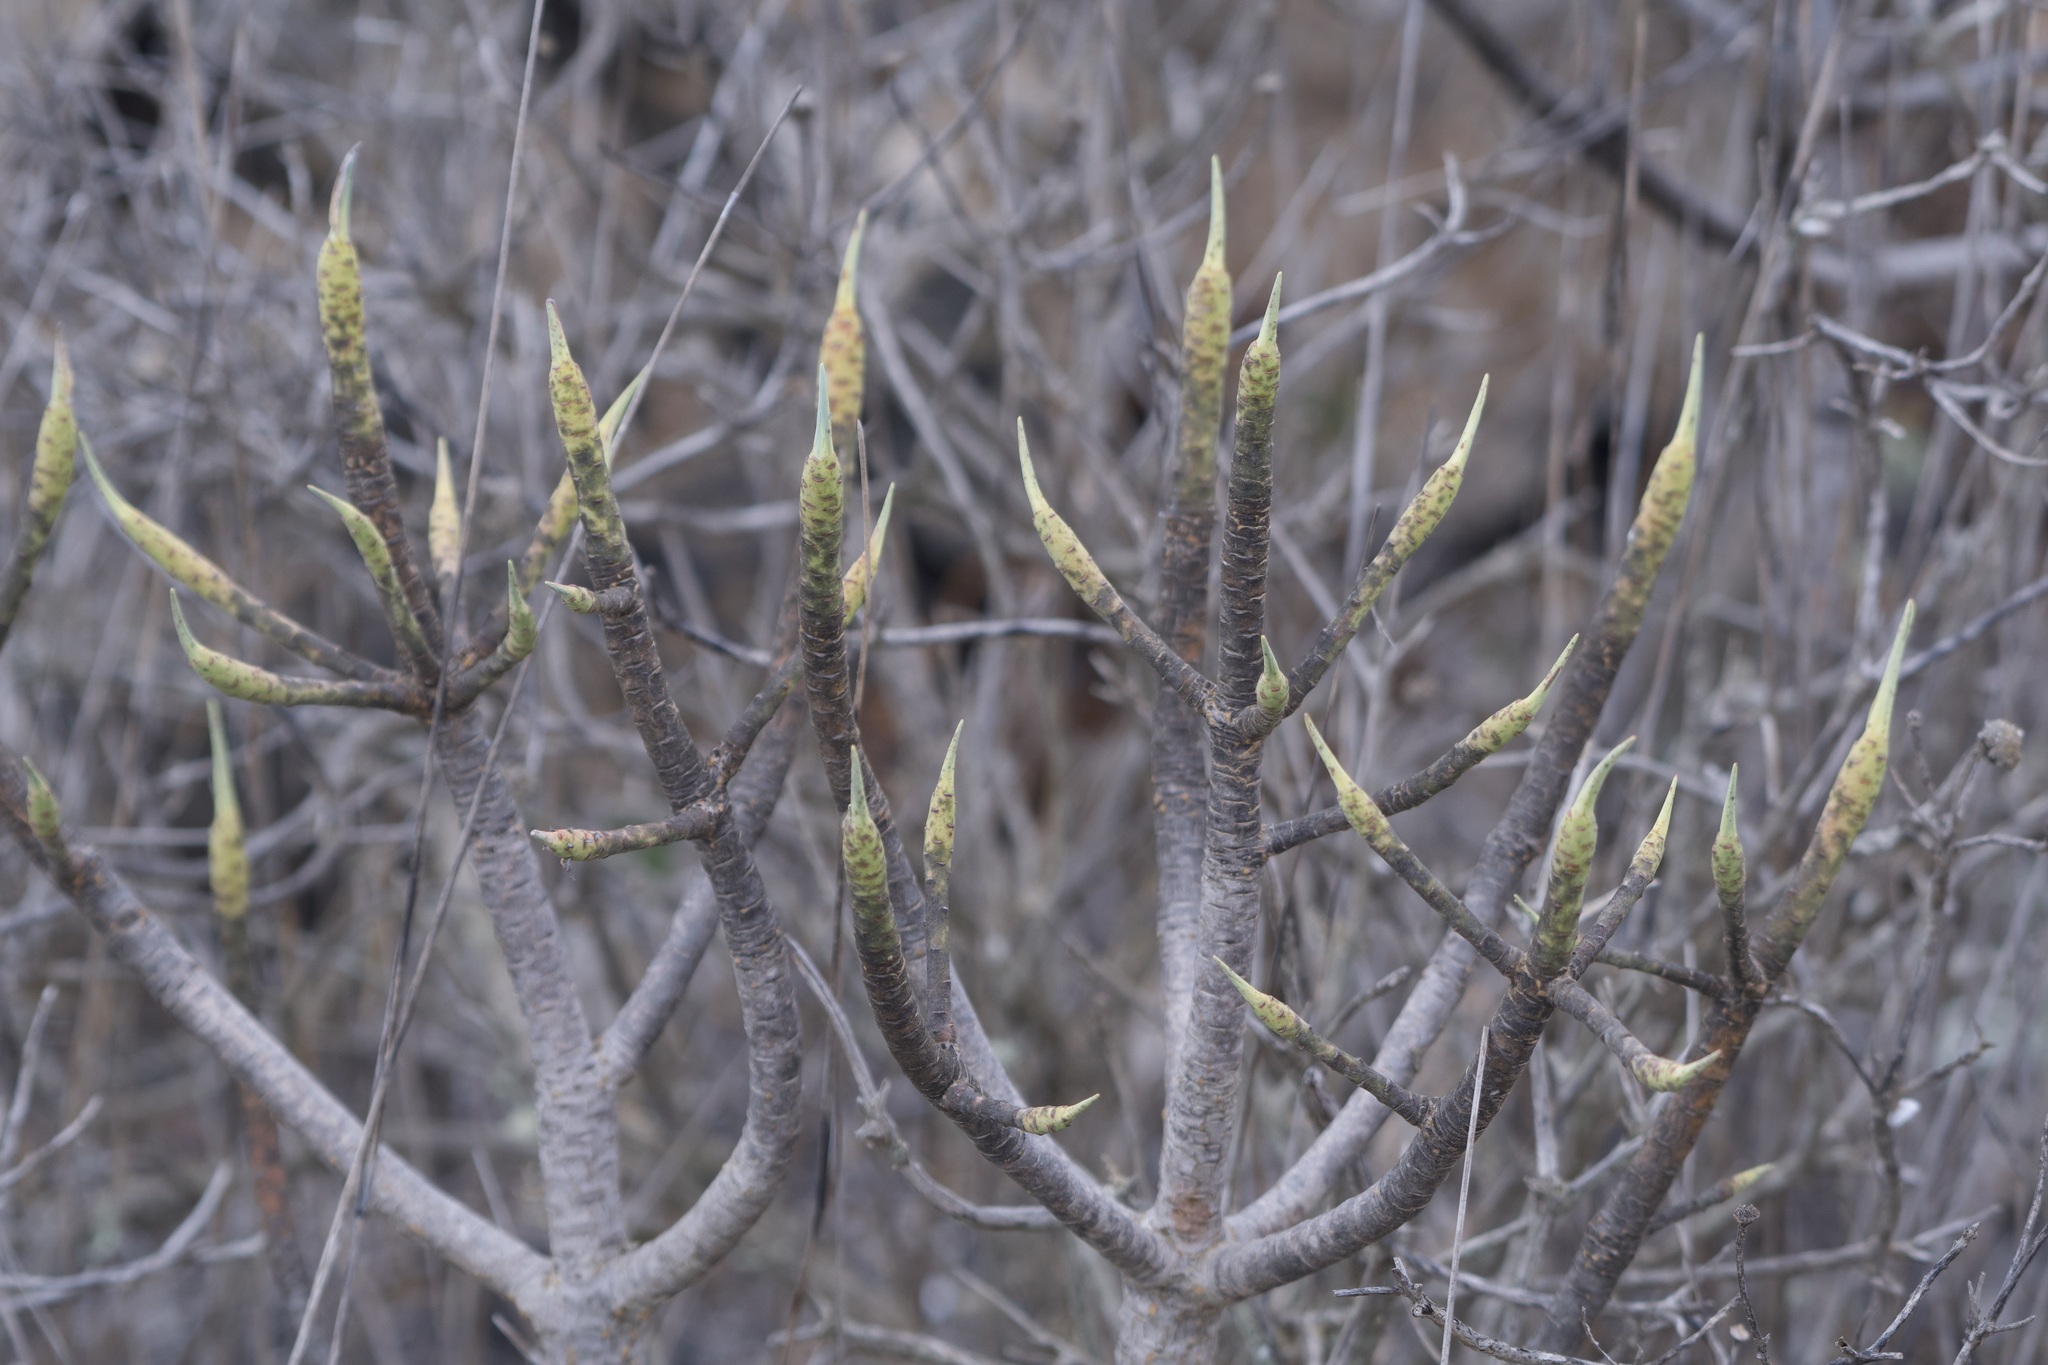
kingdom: Plantae
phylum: Tracheophyta
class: Magnoliopsida
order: Malpighiales
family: Euphorbiaceae
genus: Euphorbia
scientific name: Euphorbia regis-jubae
